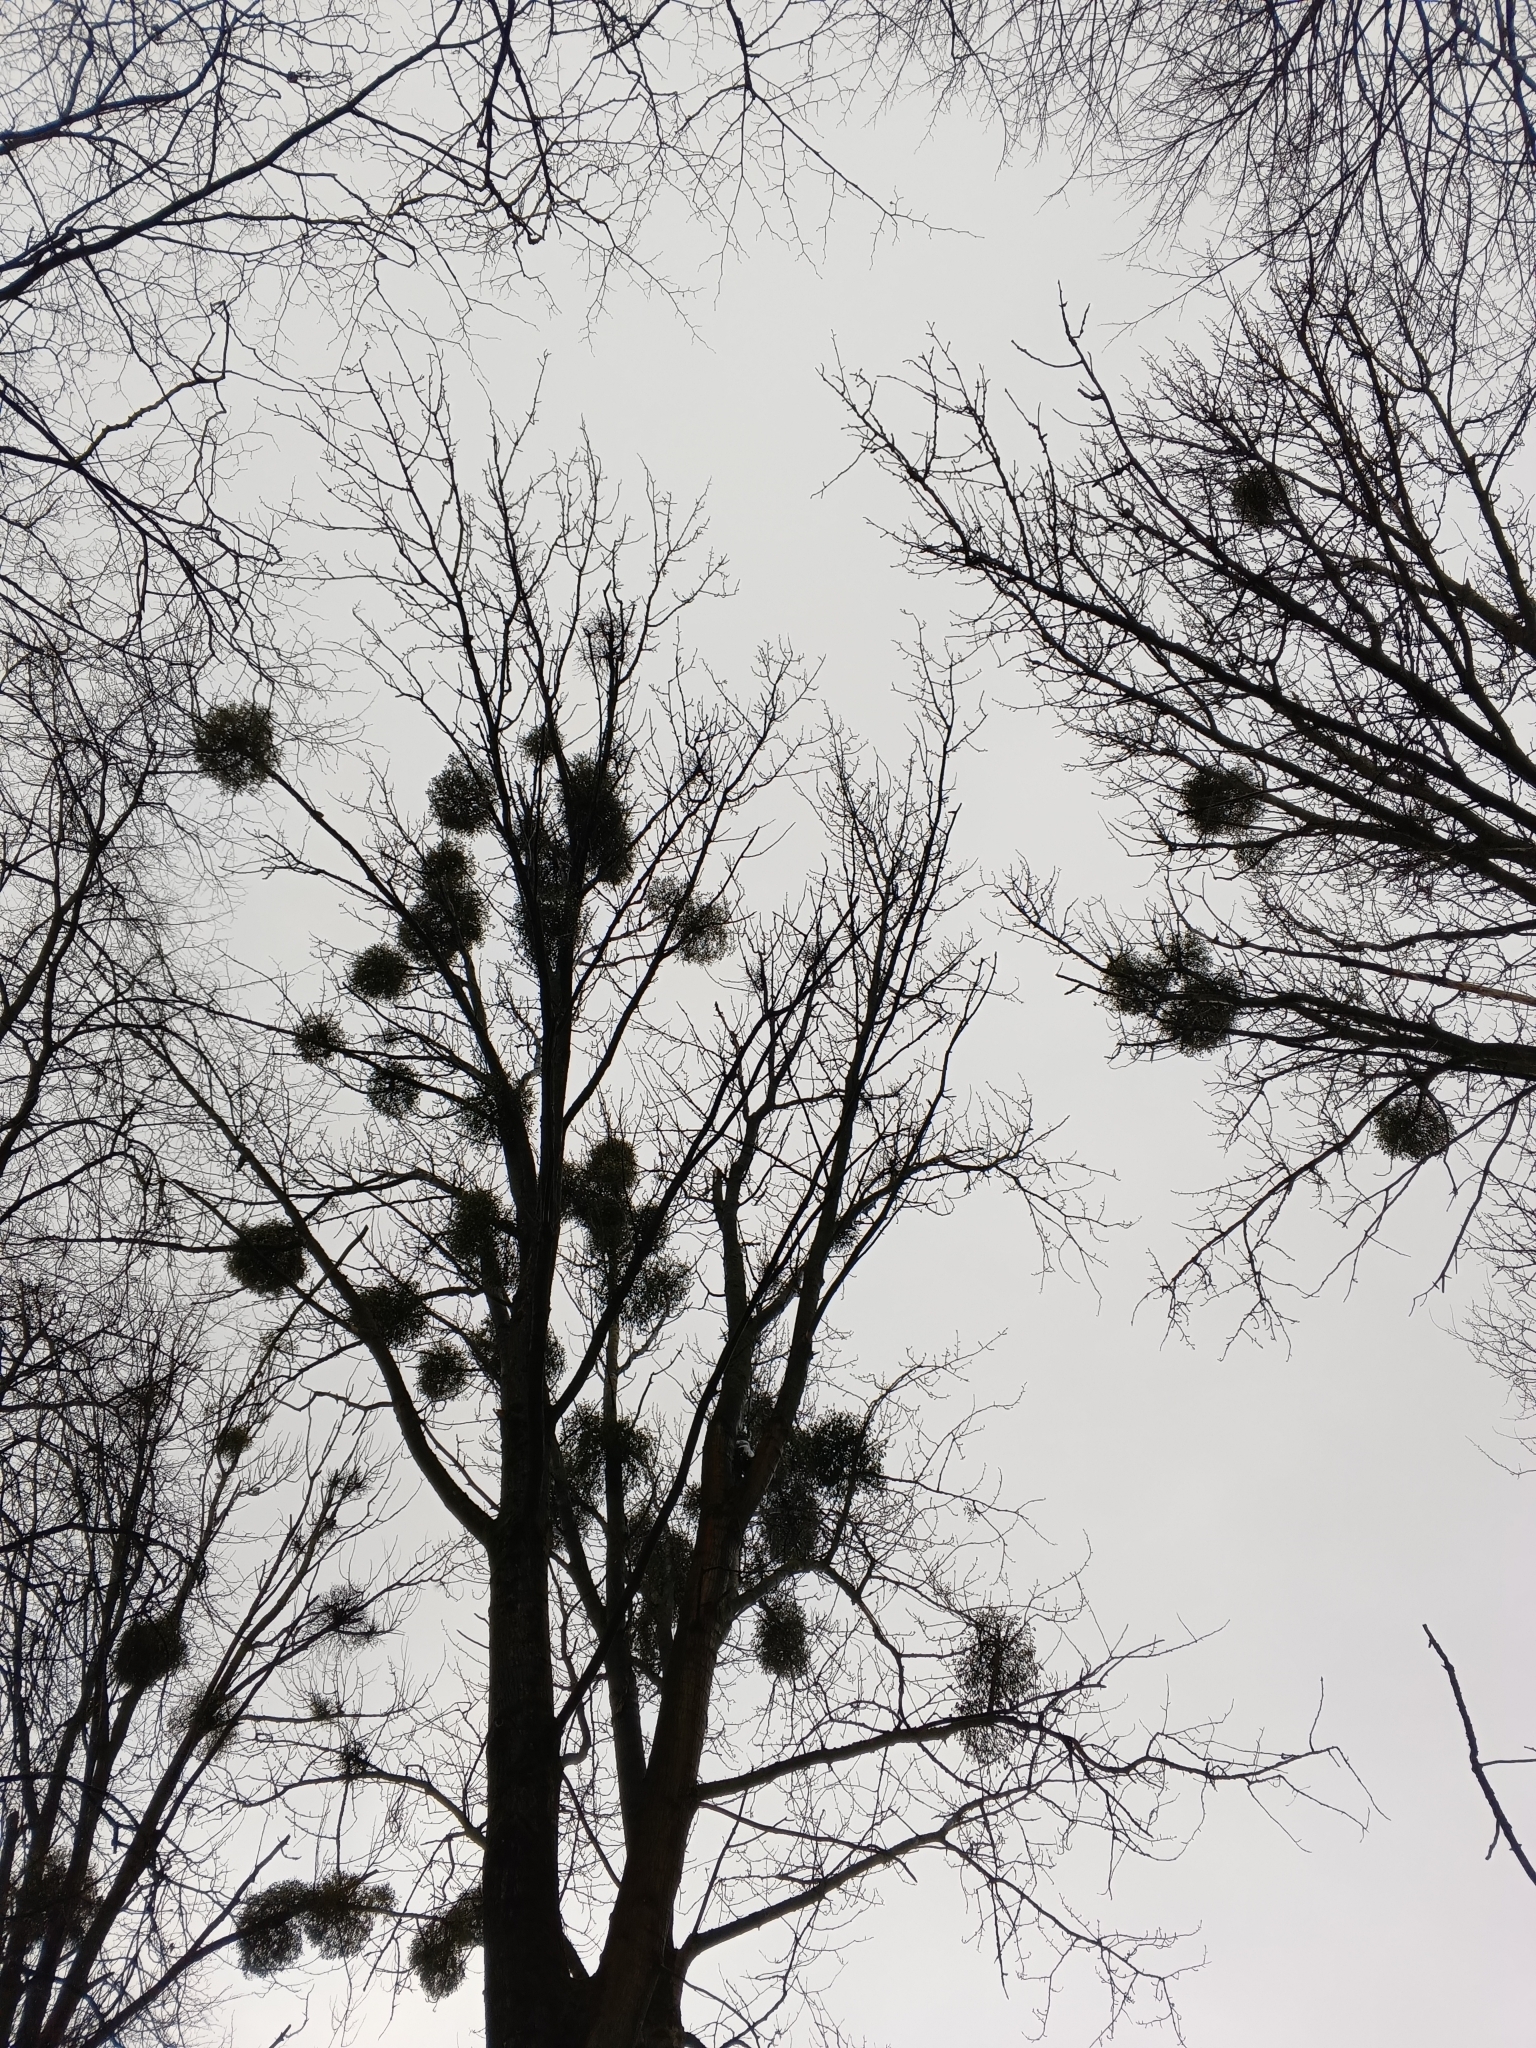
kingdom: Plantae
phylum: Tracheophyta
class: Magnoliopsida
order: Santalales
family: Viscaceae
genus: Viscum
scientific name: Viscum album
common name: Mistletoe
